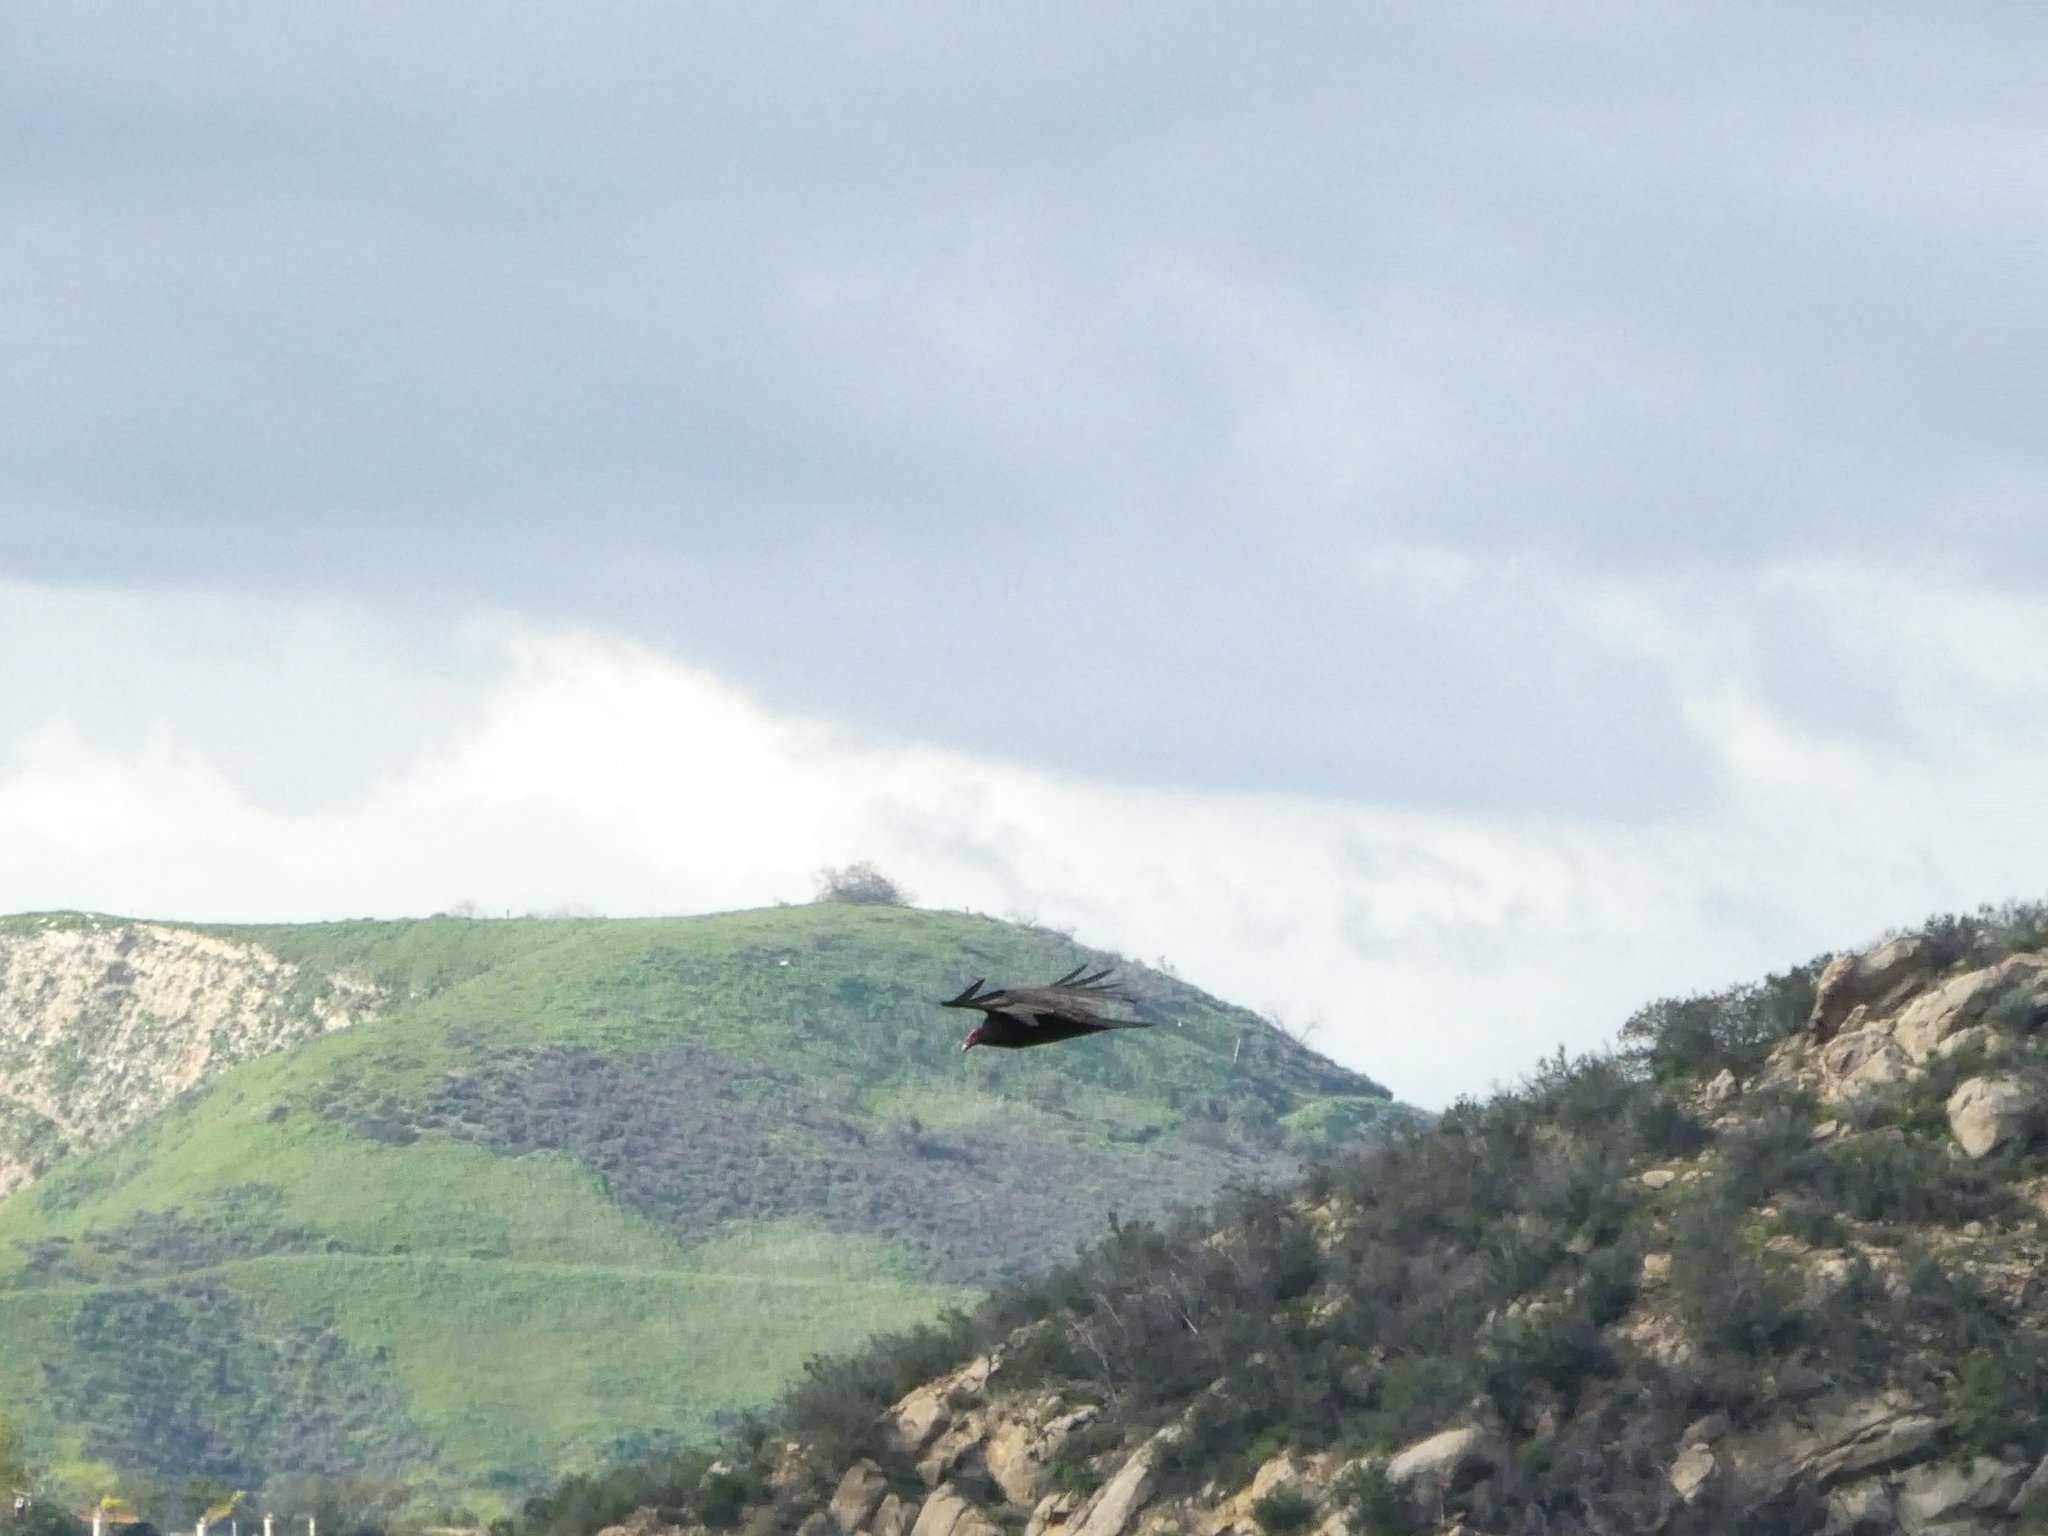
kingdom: Animalia
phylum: Chordata
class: Aves
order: Accipitriformes
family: Cathartidae
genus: Cathartes
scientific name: Cathartes aura
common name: Turkey vulture
